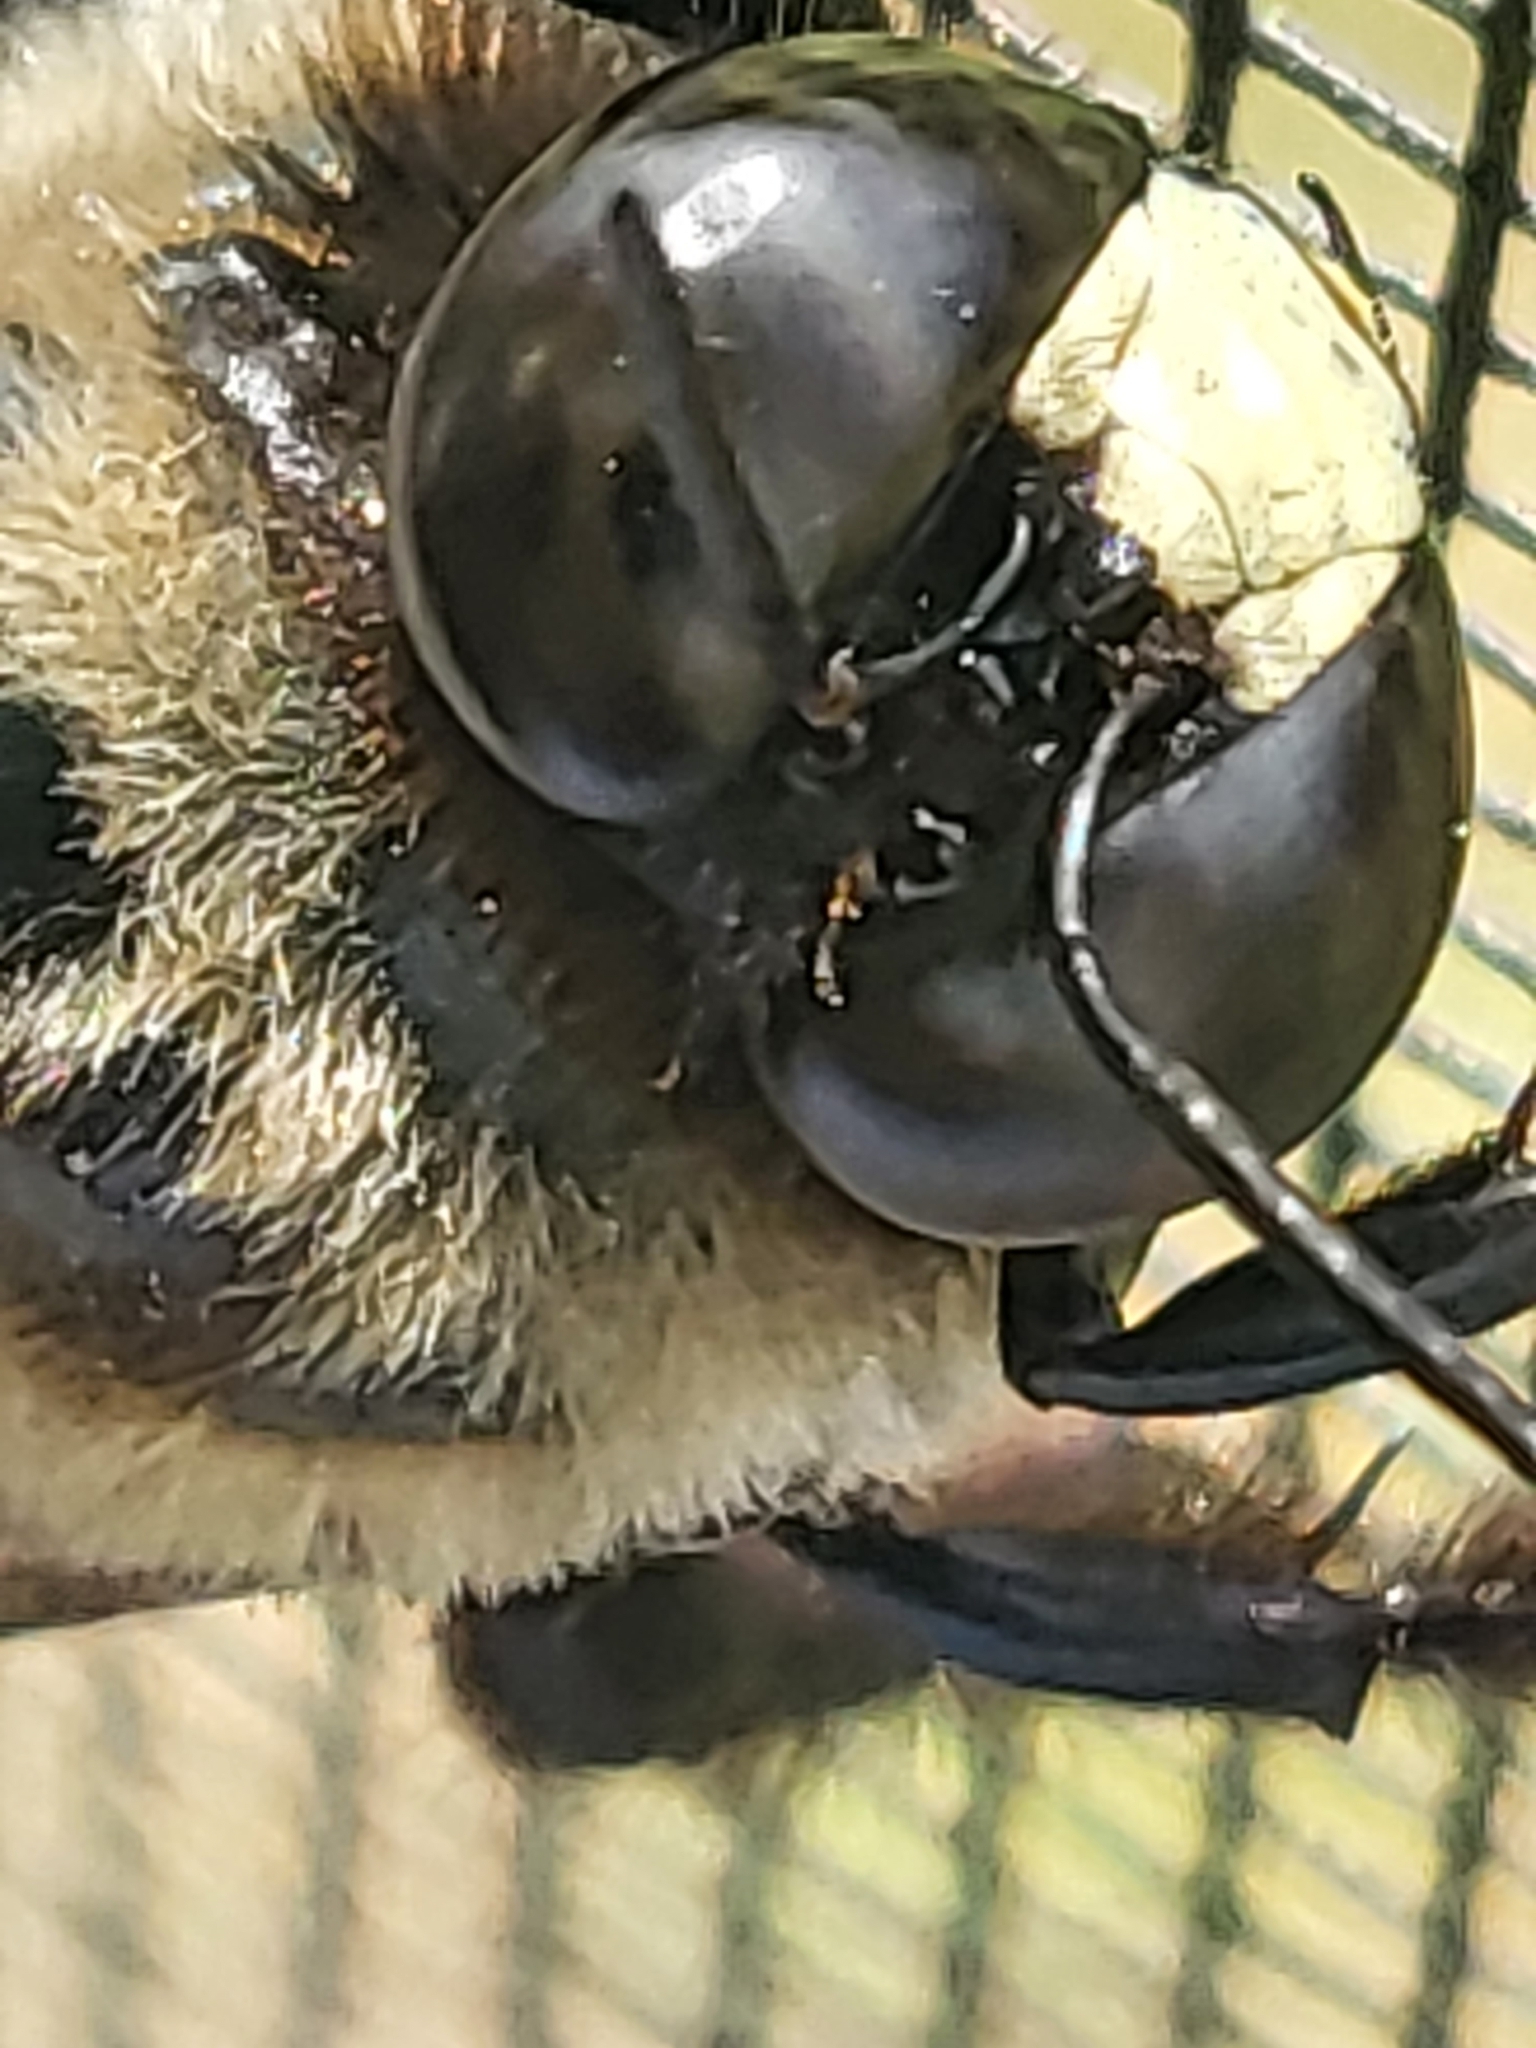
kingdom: Animalia
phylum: Arthropoda
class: Insecta
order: Hymenoptera
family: Apidae
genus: Xylocopa
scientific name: Xylocopa virginica
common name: Carpenter bee
